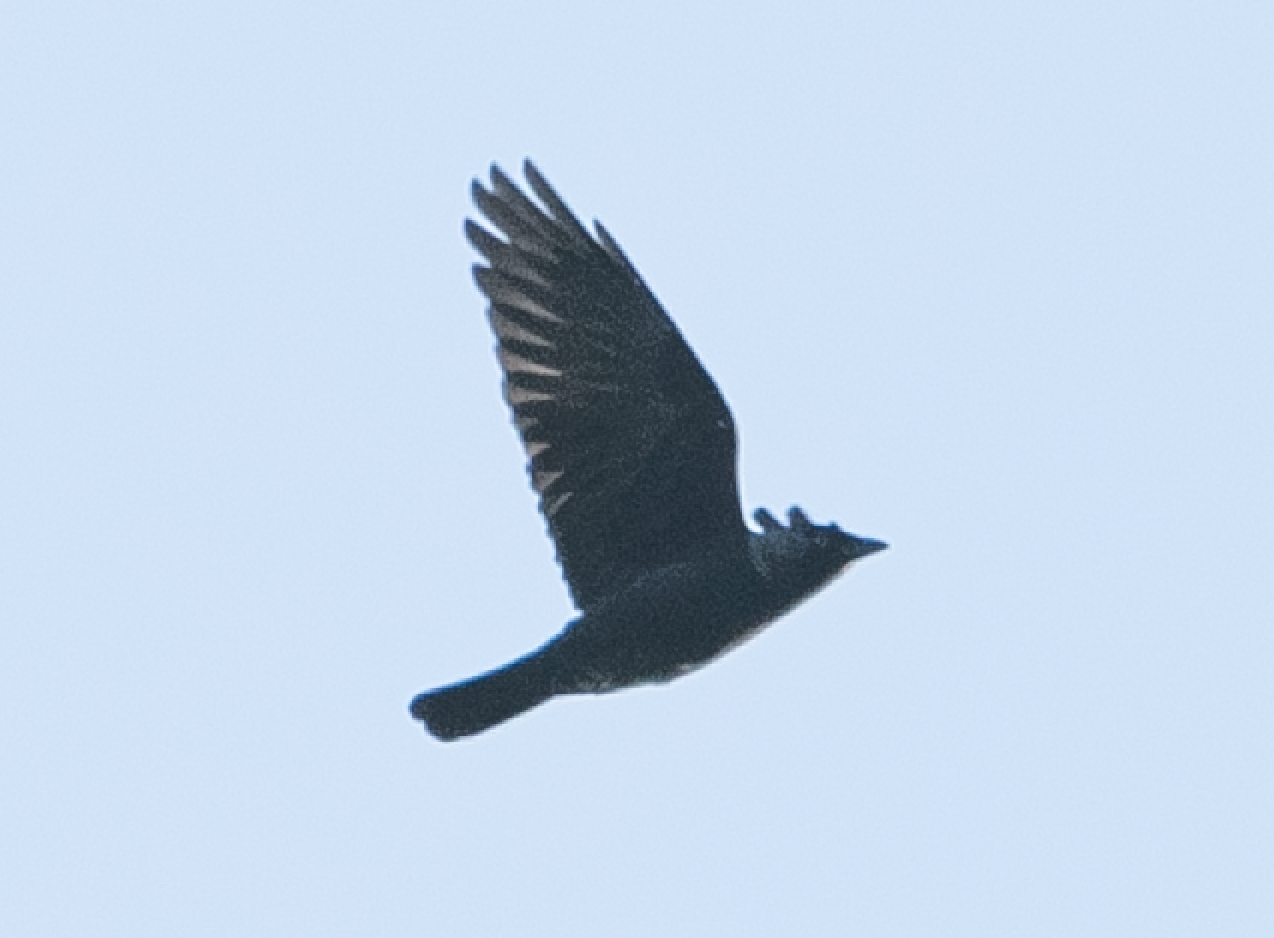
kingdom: Animalia
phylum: Chordata
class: Aves
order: Passeriformes
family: Corvidae
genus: Coloeus
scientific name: Coloeus monedula
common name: Western jackdaw
